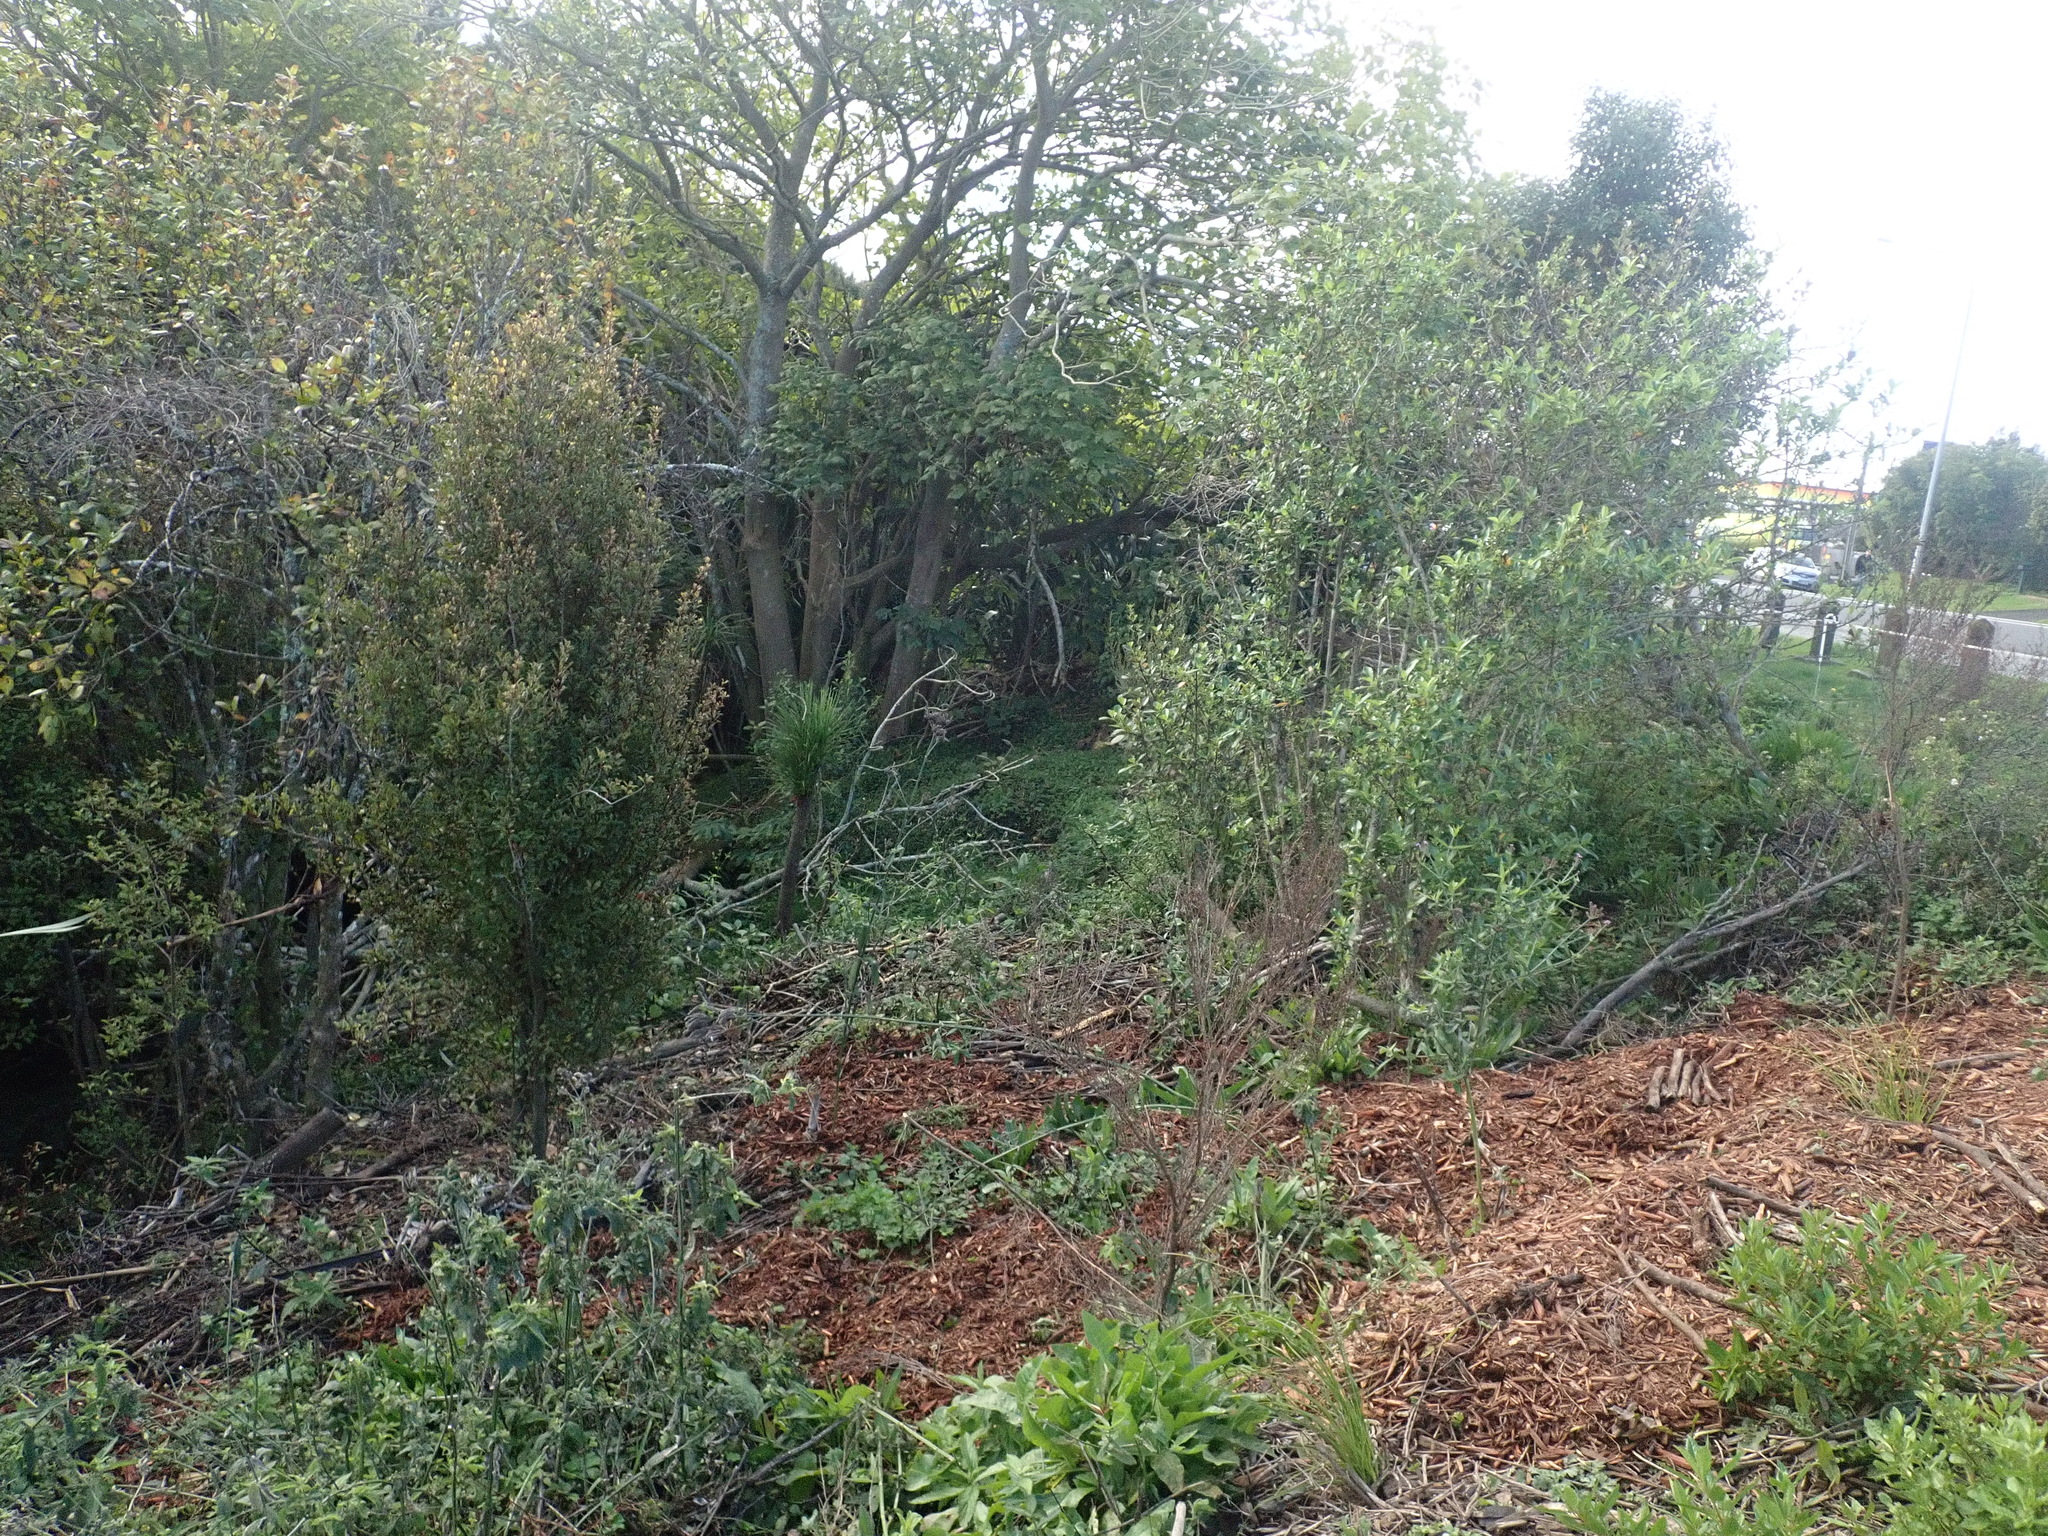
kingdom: Plantae
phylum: Tracheophyta
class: Magnoliopsida
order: Gentianales
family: Rubiaceae
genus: Coprosma
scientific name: Coprosma robusta
